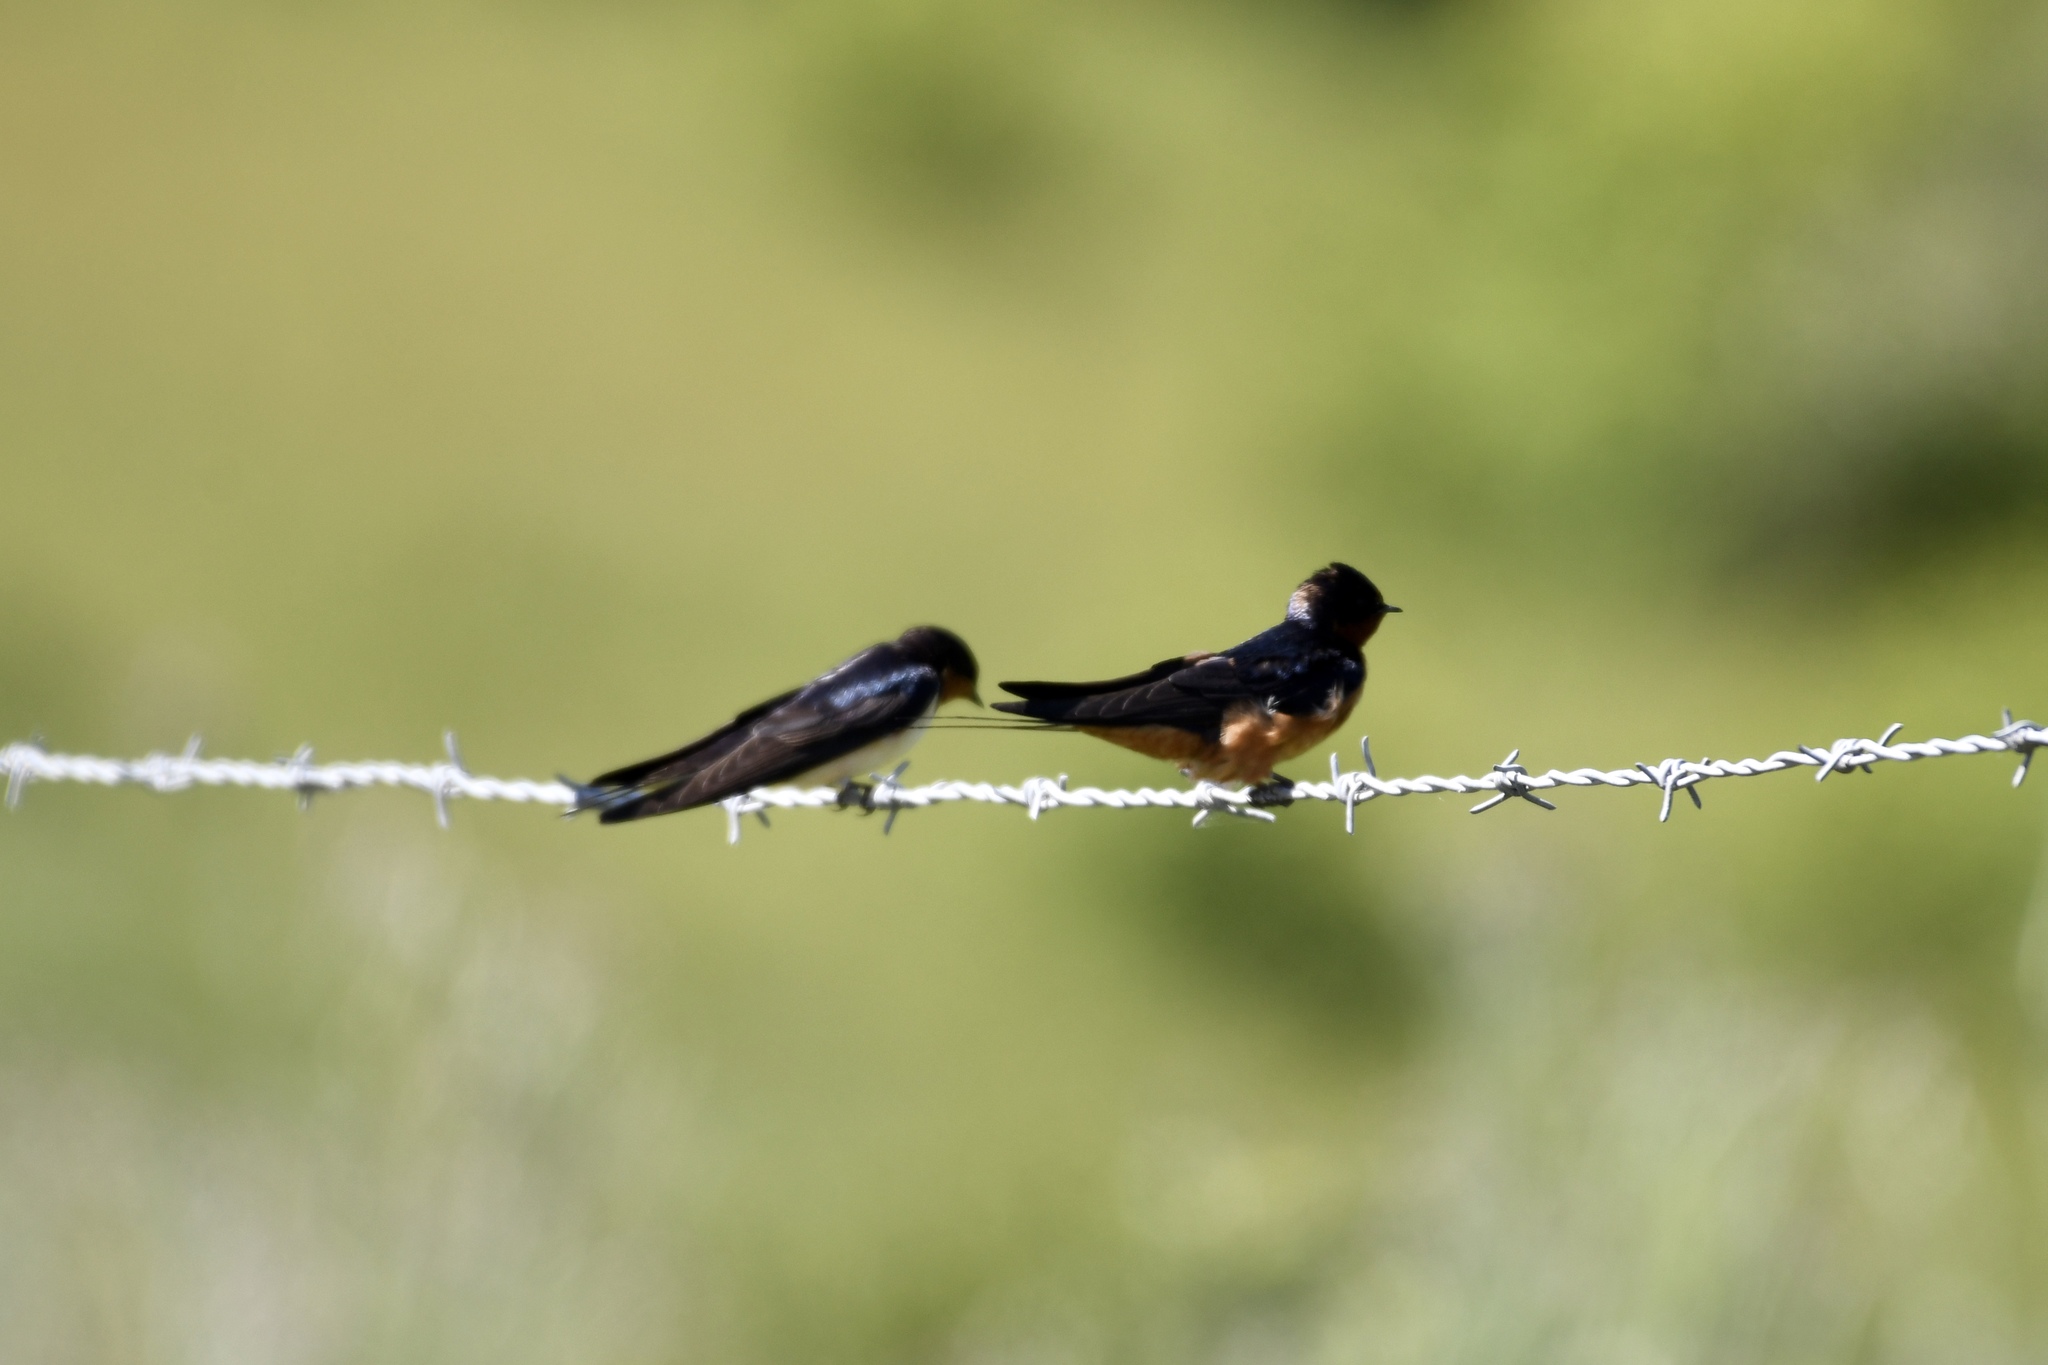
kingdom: Animalia
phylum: Chordata
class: Aves
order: Passeriformes
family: Hirundinidae
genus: Hirundo
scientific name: Hirundo rustica
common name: Barn swallow
